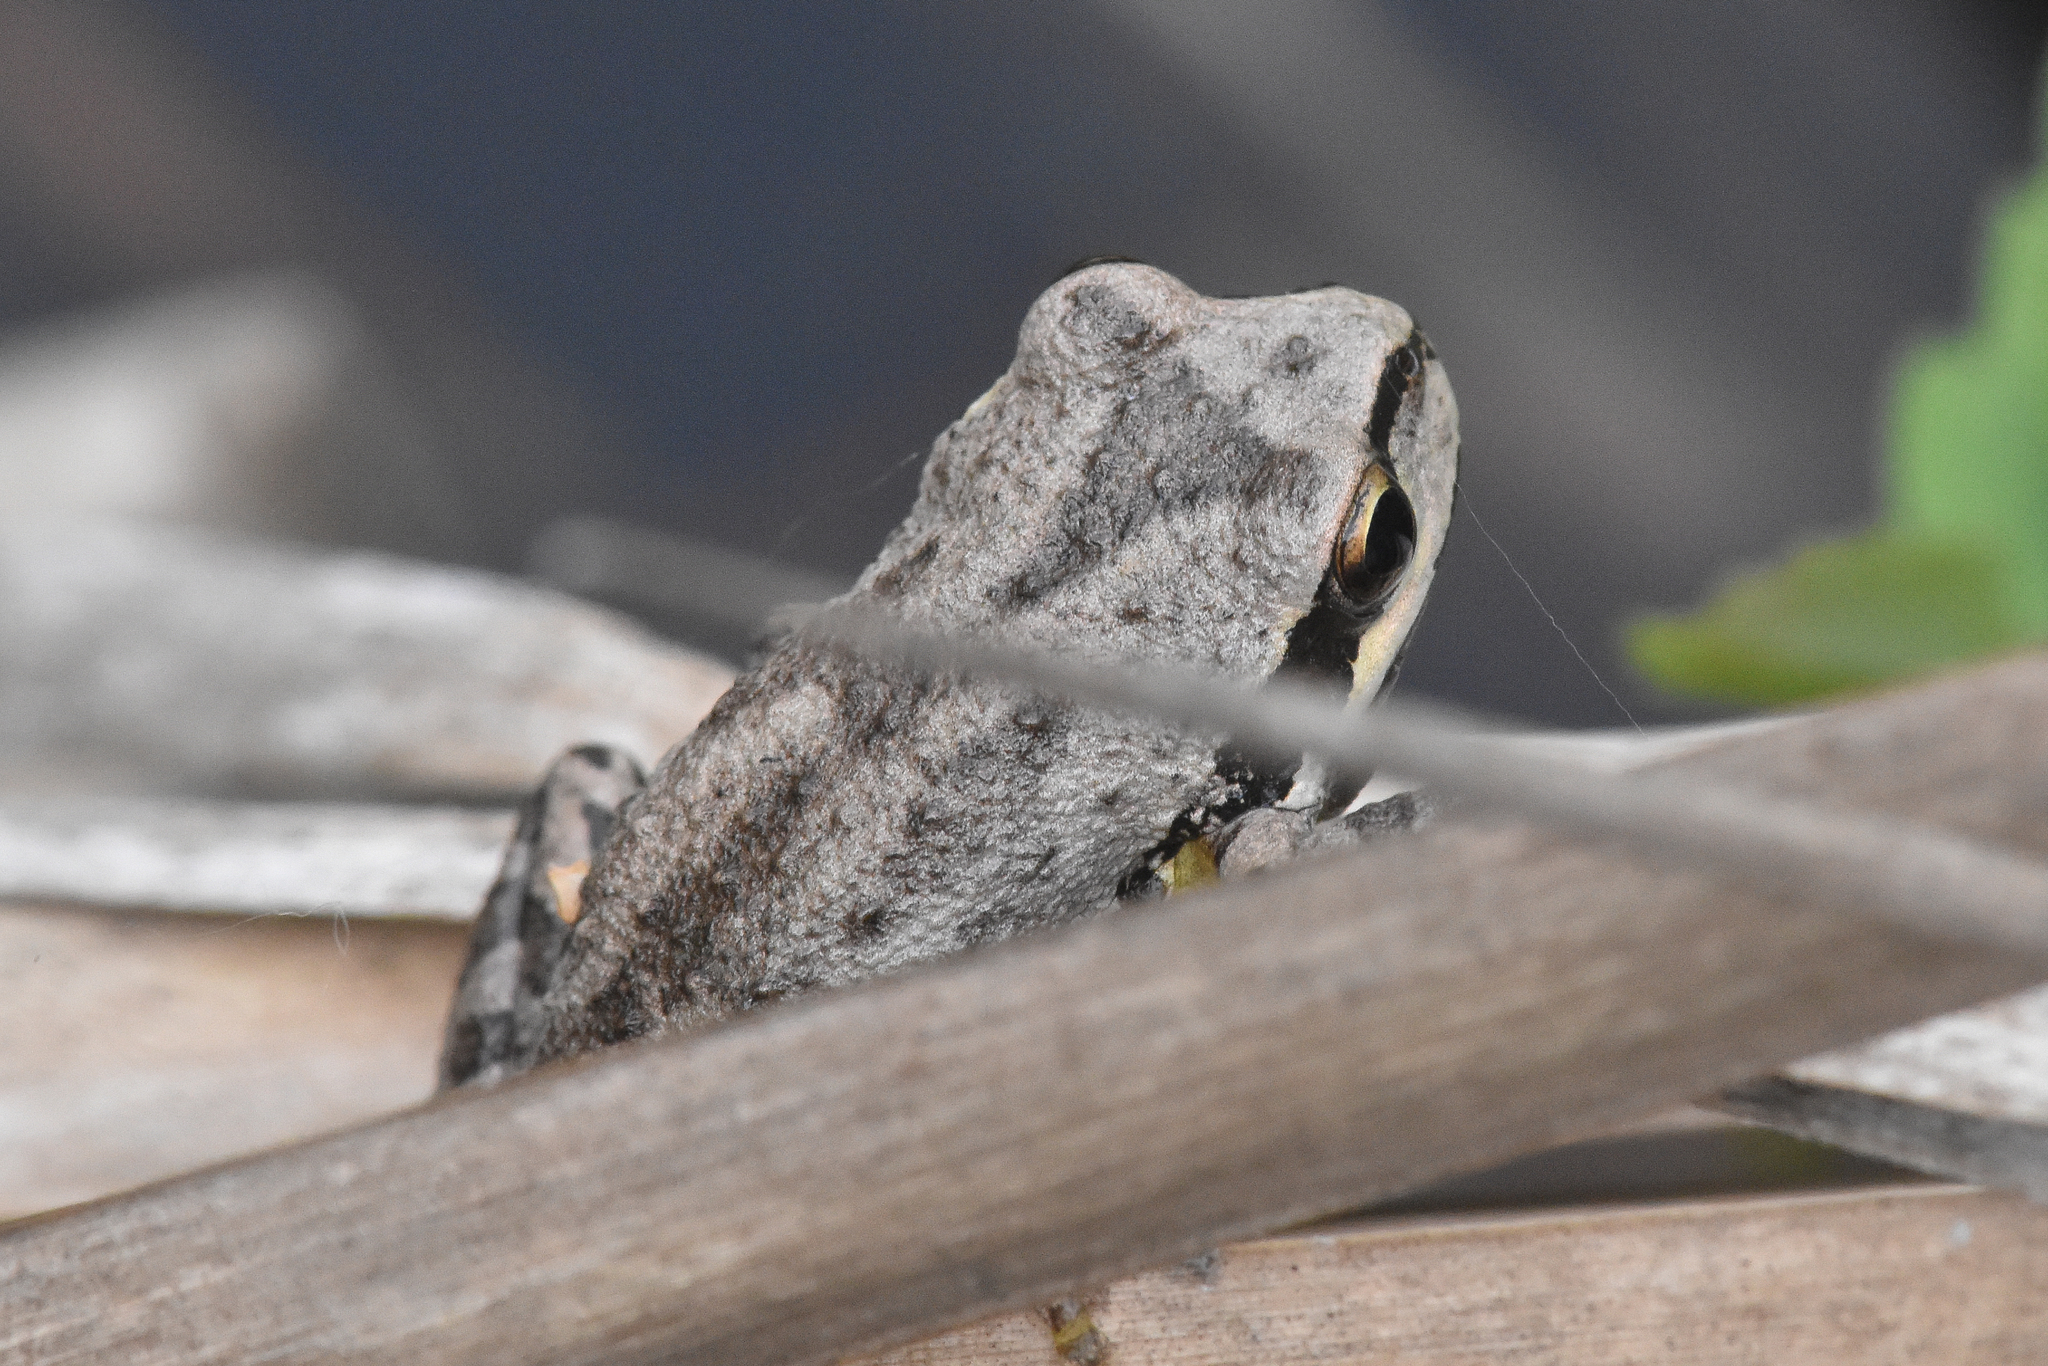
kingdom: Animalia
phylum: Chordata
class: Amphibia
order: Anura
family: Hylidae
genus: Pseudacris
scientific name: Pseudacris regilla
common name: Pacific chorus frog
